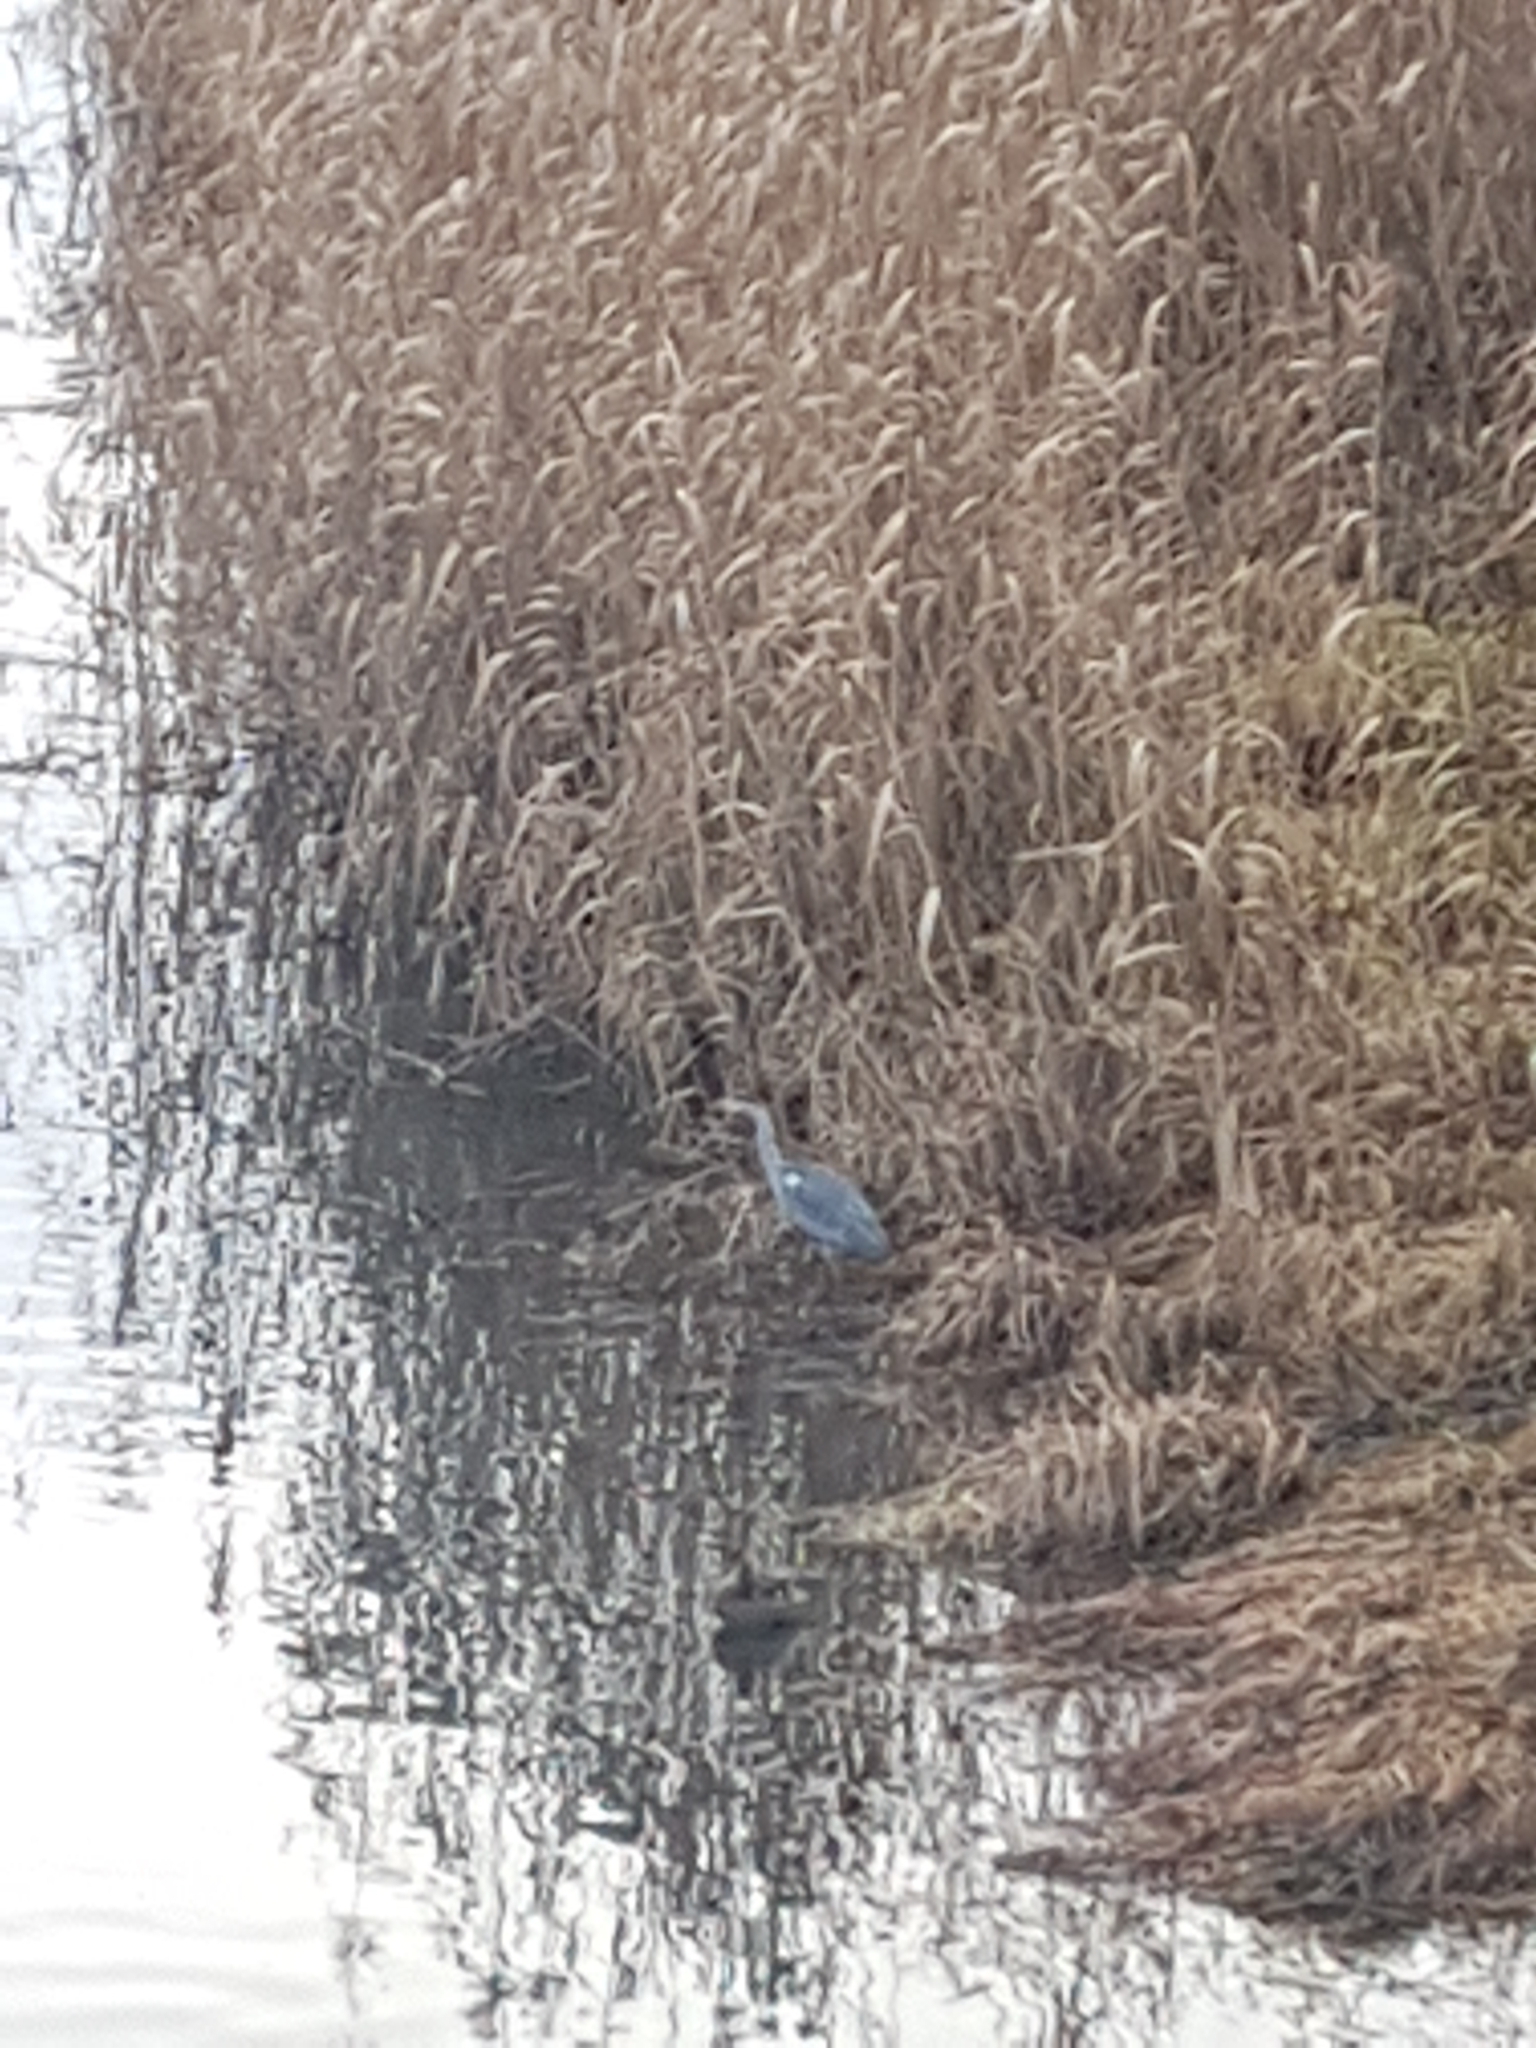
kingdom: Animalia
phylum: Chordata
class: Aves
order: Pelecaniformes
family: Ardeidae
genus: Ardea
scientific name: Ardea cinerea
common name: Grey heron
